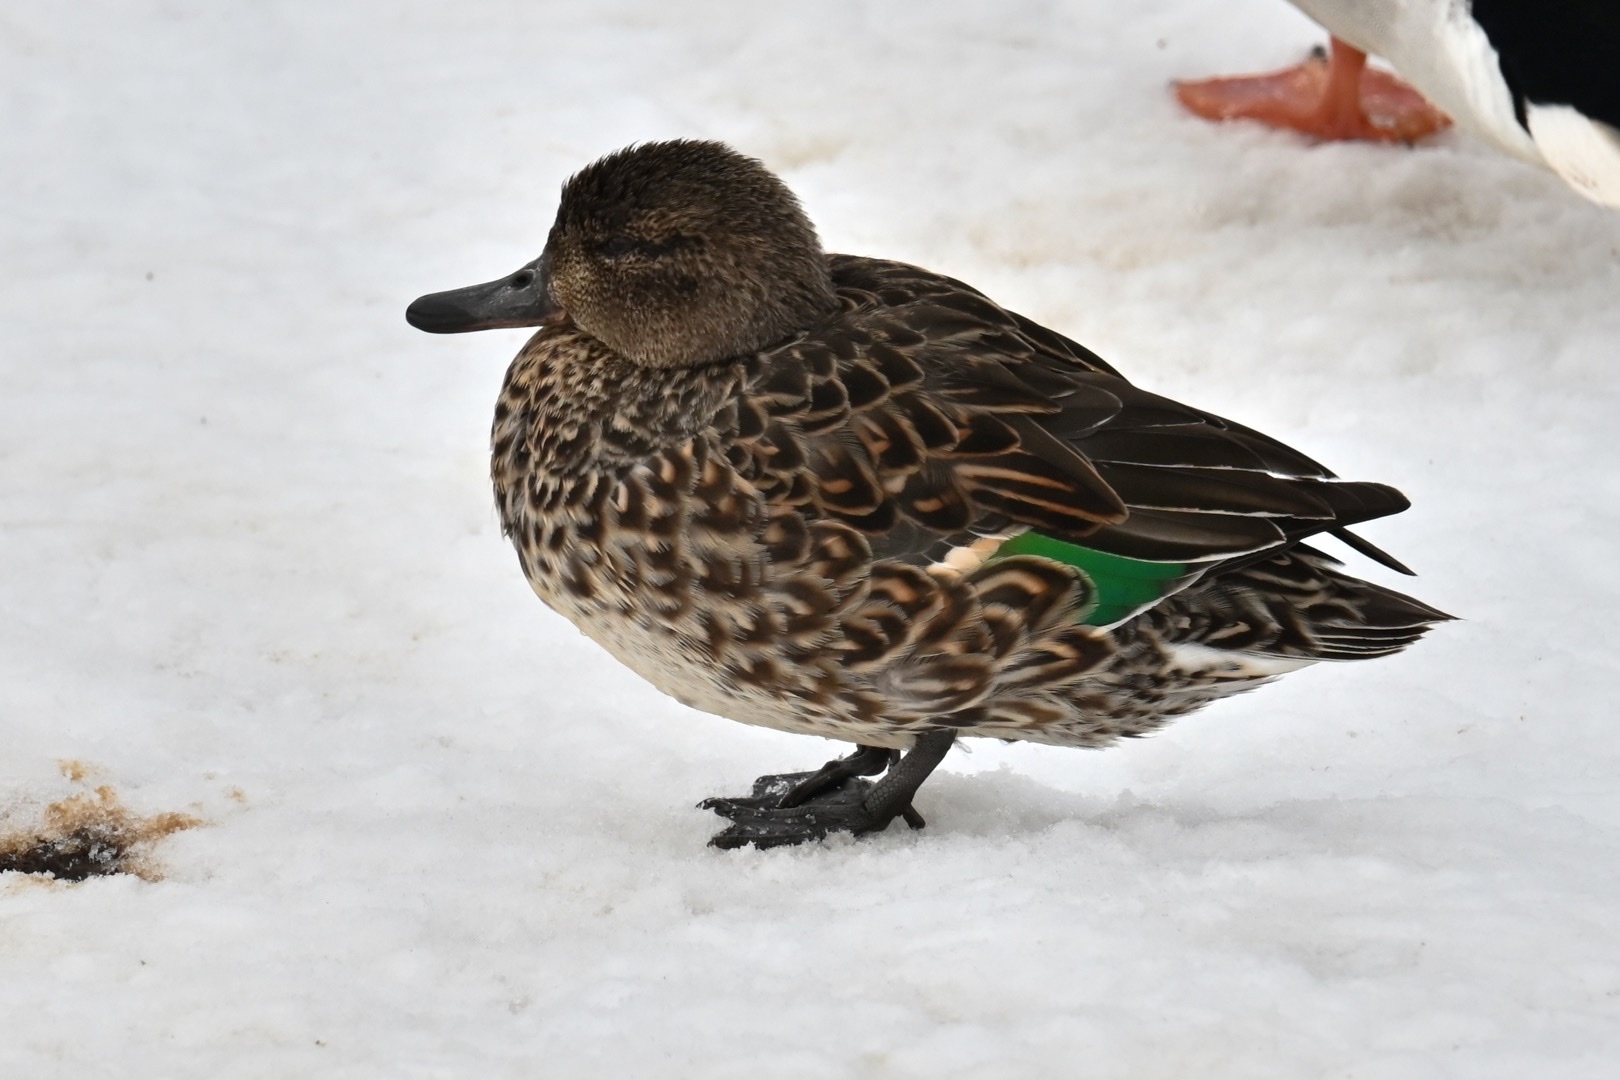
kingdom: Animalia
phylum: Chordata
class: Aves
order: Anseriformes
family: Anatidae
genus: Anas
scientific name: Anas crecca
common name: Eurasian teal
